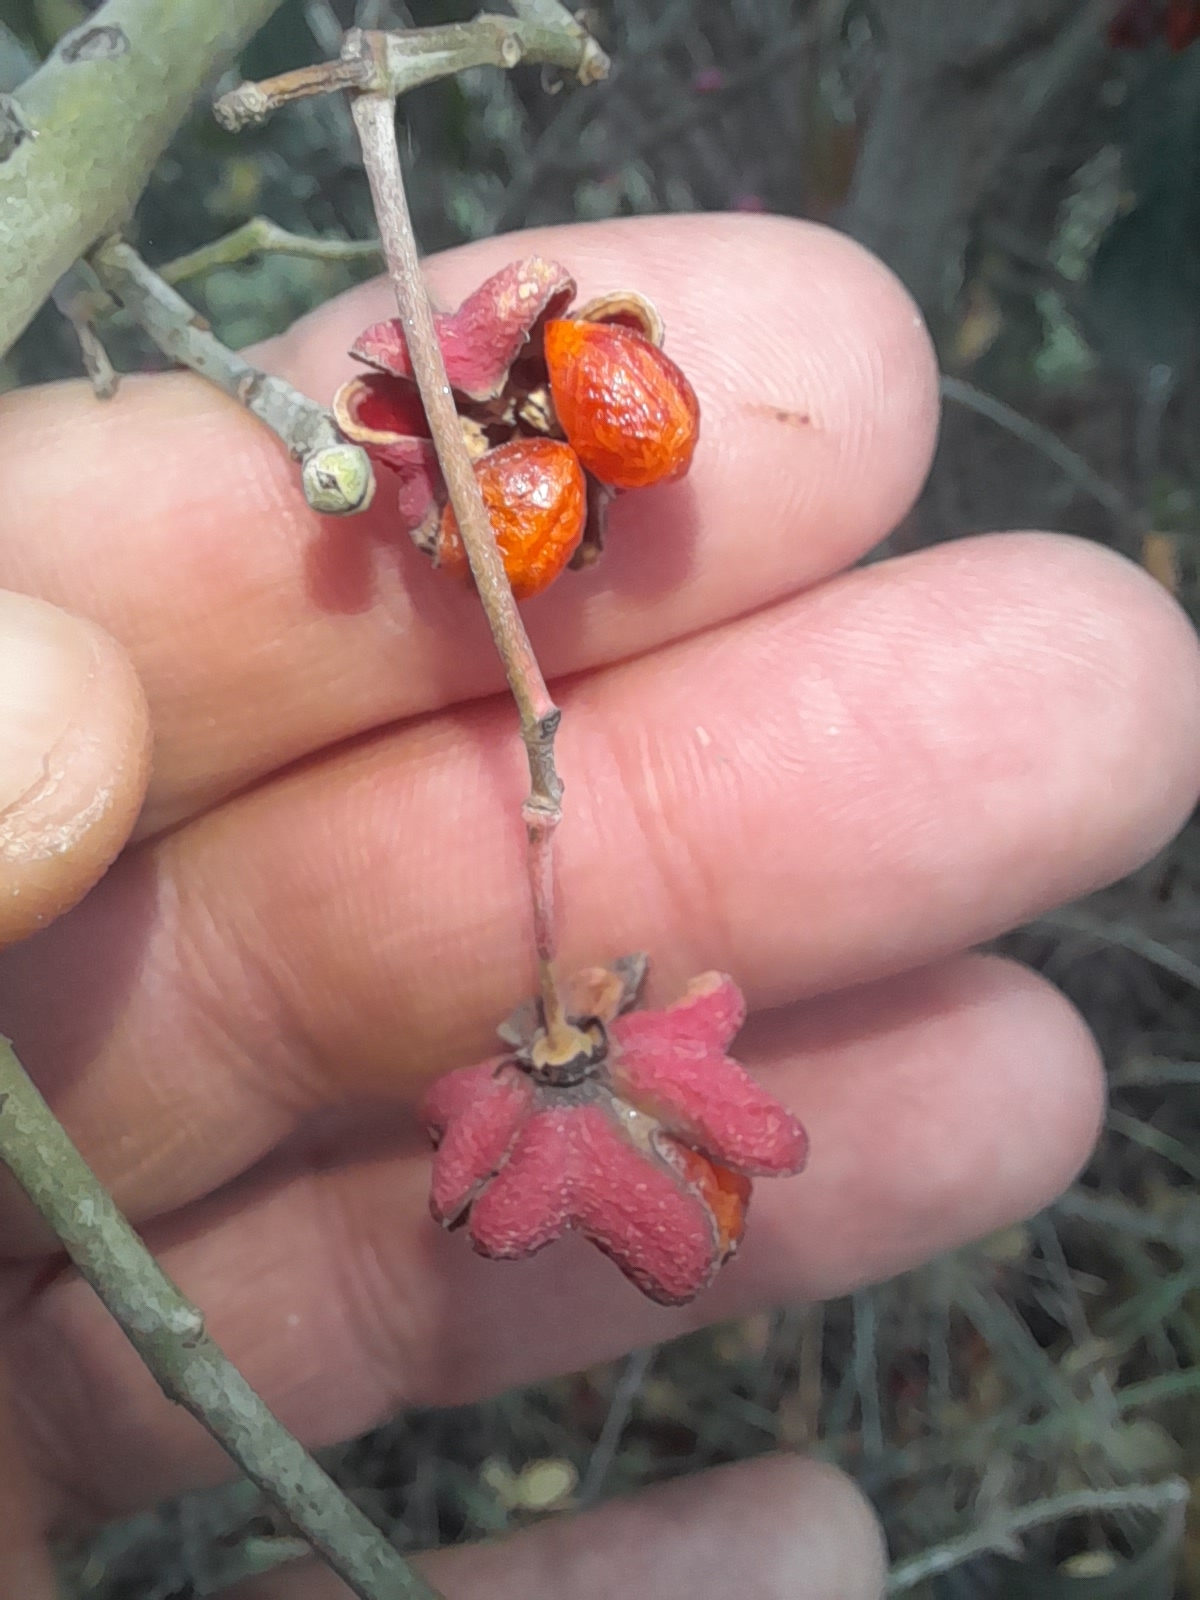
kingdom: Plantae
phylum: Tracheophyta
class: Magnoliopsida
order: Celastrales
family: Celastraceae
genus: Euonymus
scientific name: Euonymus europaeus
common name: Spindle
